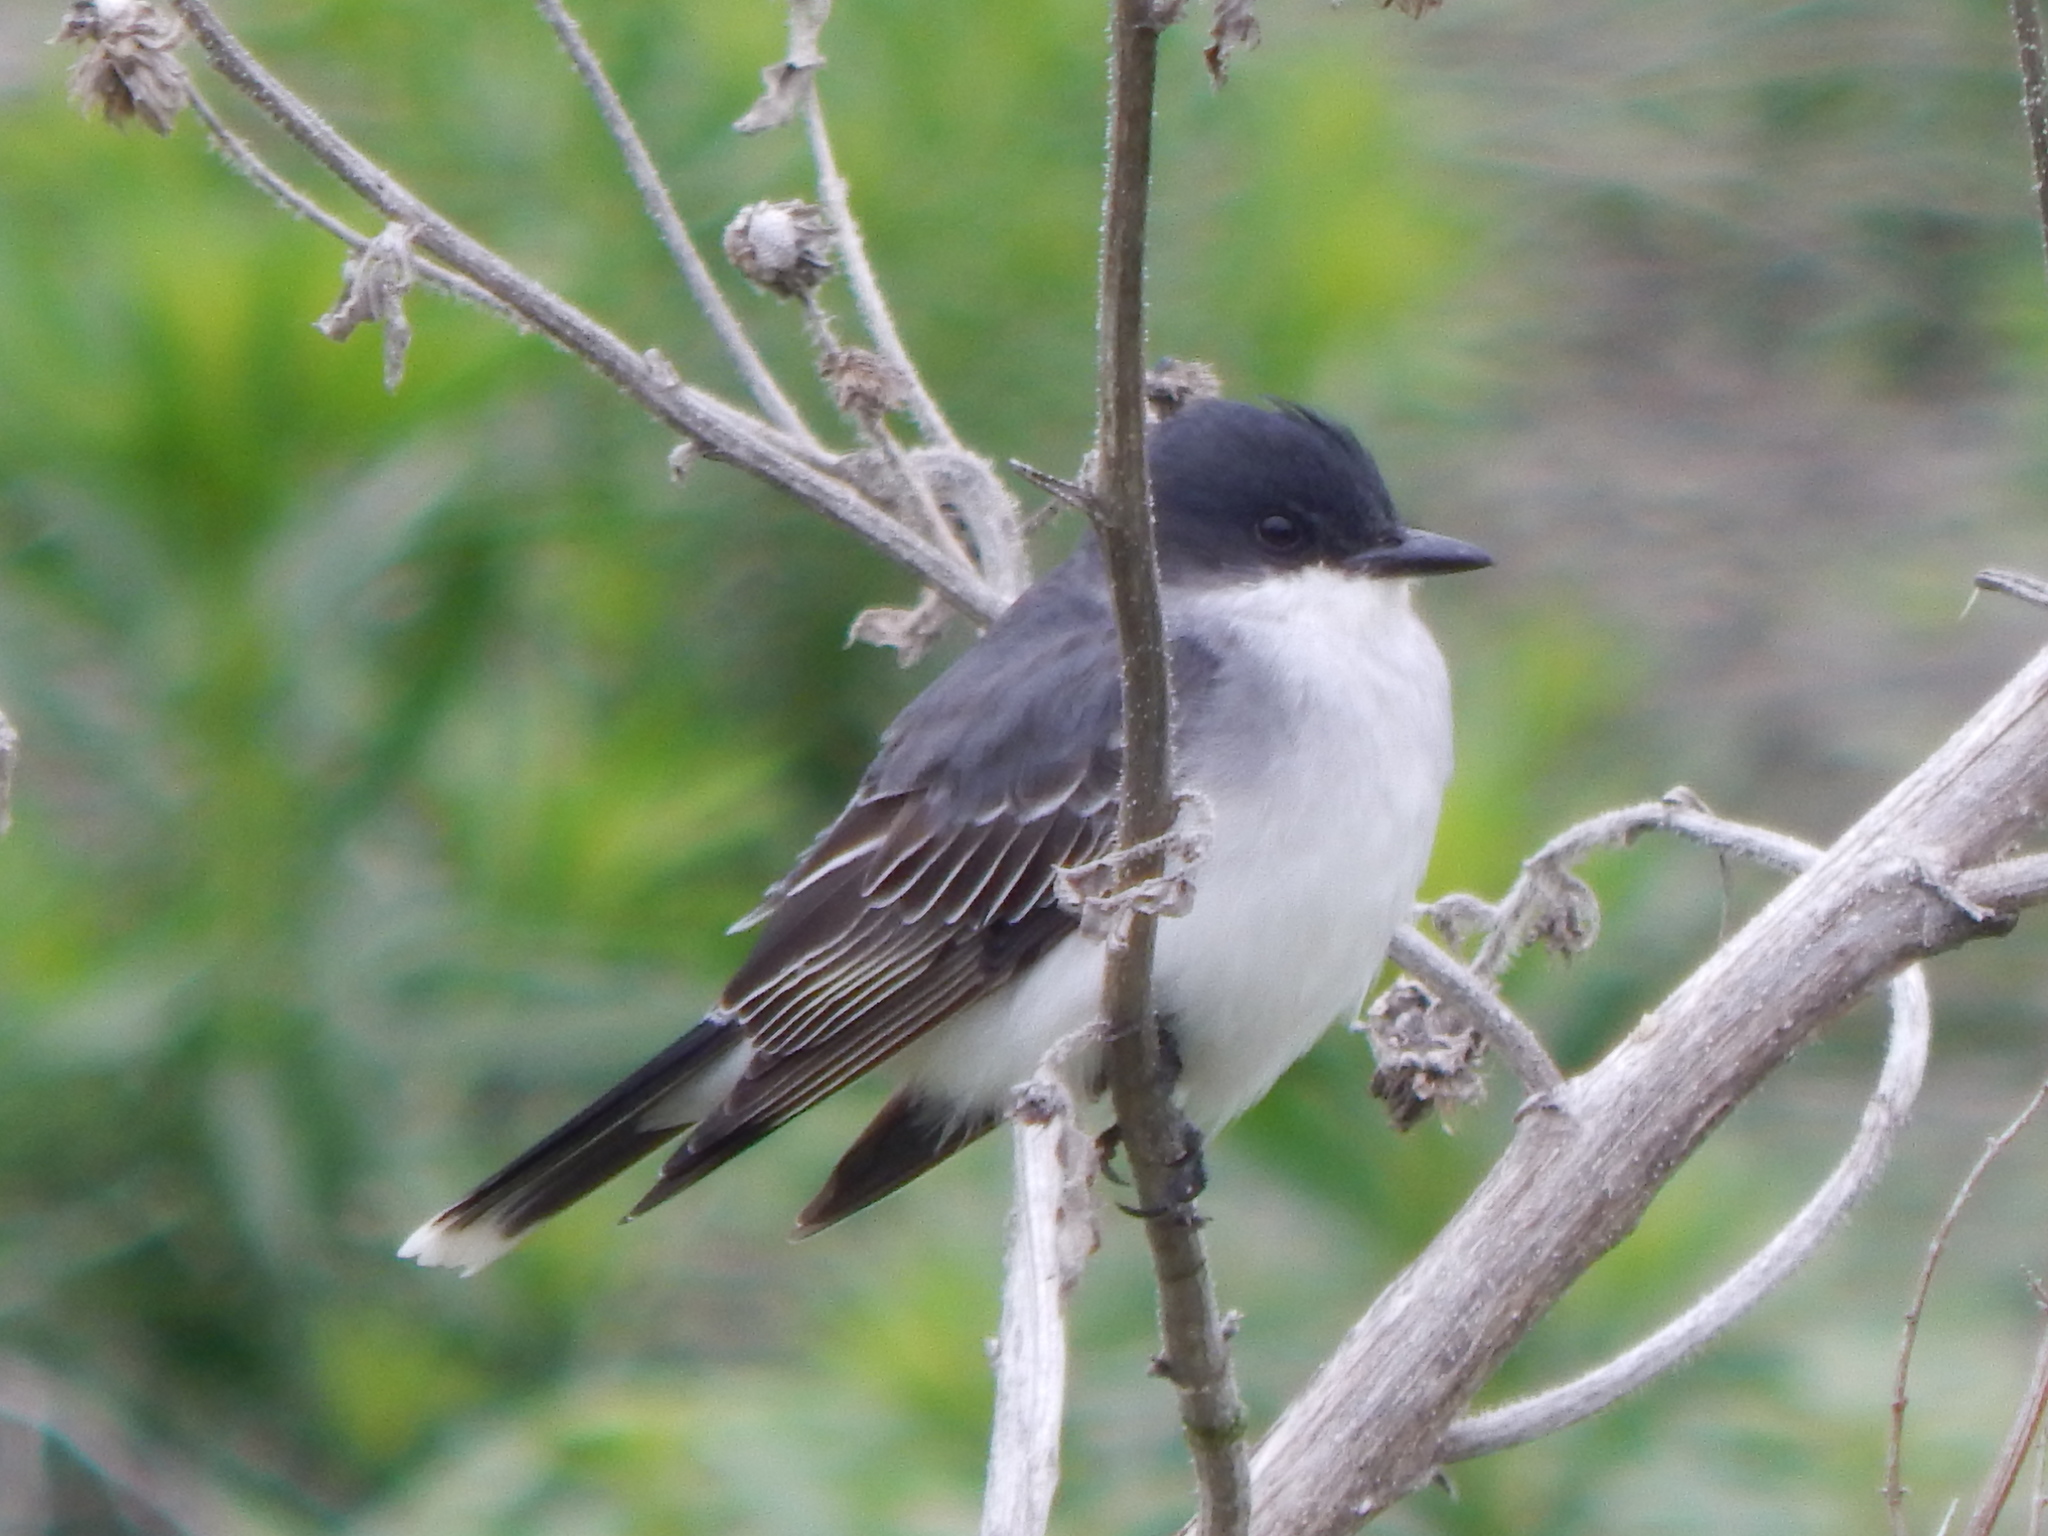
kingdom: Animalia
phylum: Chordata
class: Aves
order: Passeriformes
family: Tyrannidae
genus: Tyrannus
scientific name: Tyrannus tyrannus
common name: Eastern kingbird
